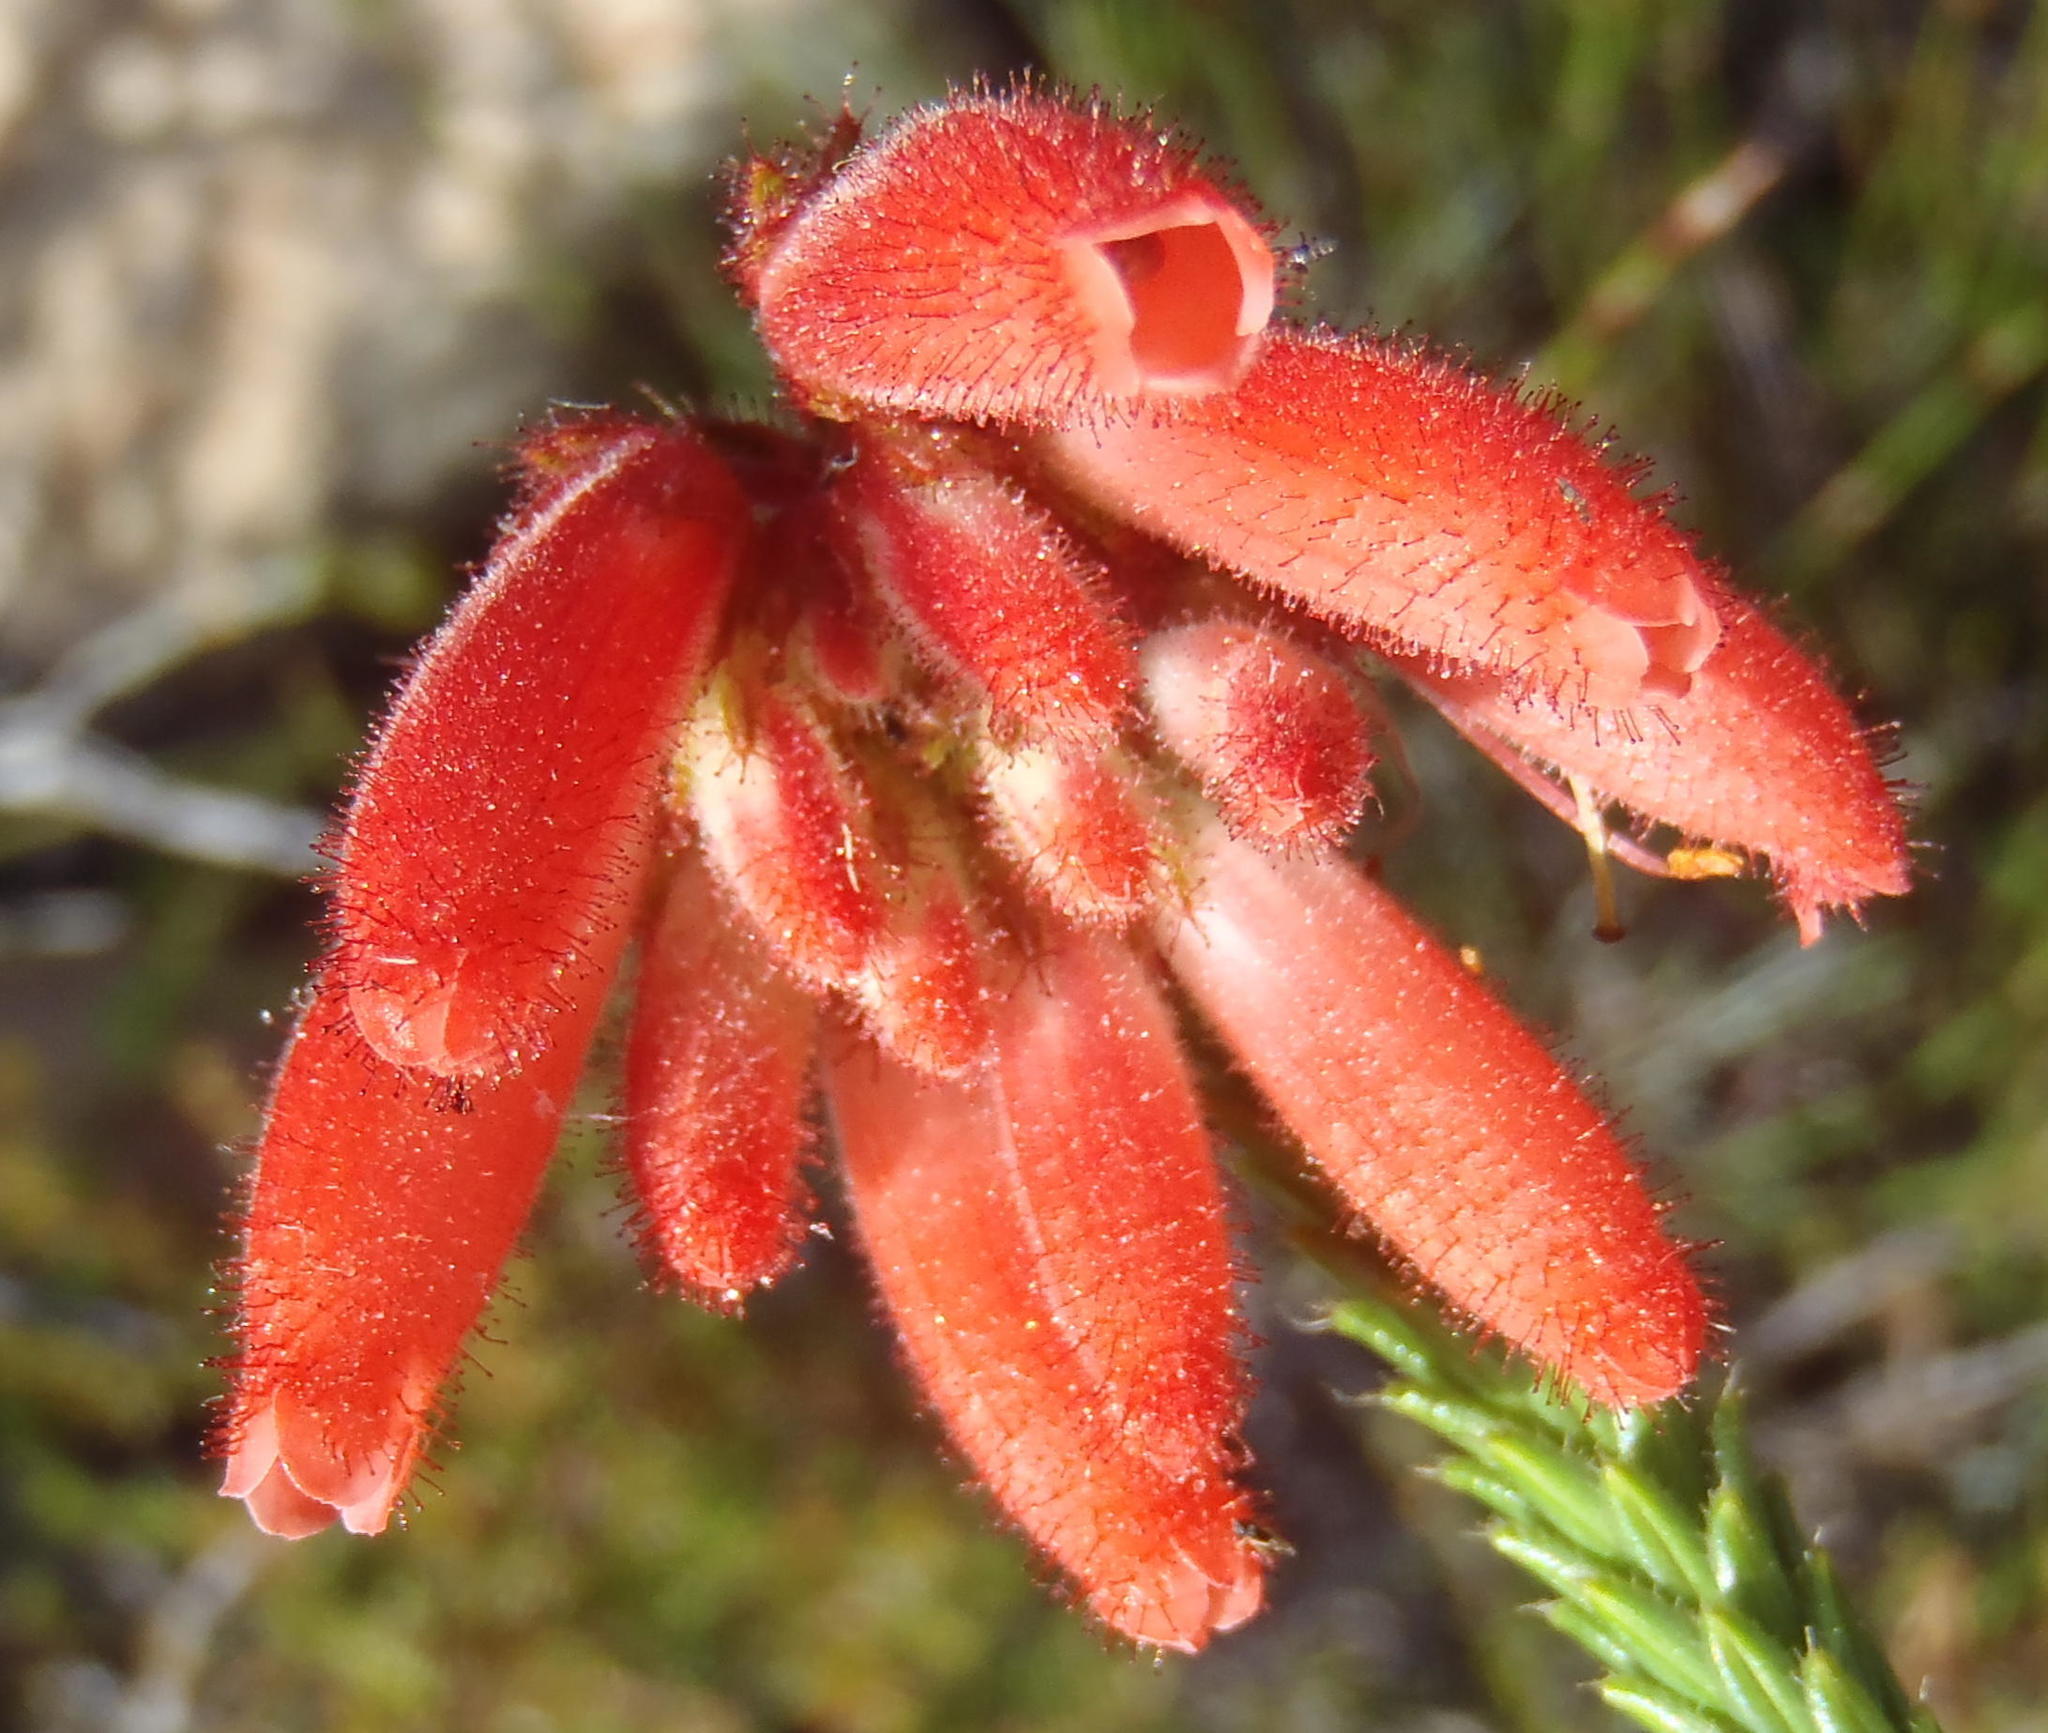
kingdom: Plantae
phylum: Tracheophyta
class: Magnoliopsida
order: Ericales
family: Ericaceae
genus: Erica
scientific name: Erica cerinthoides
